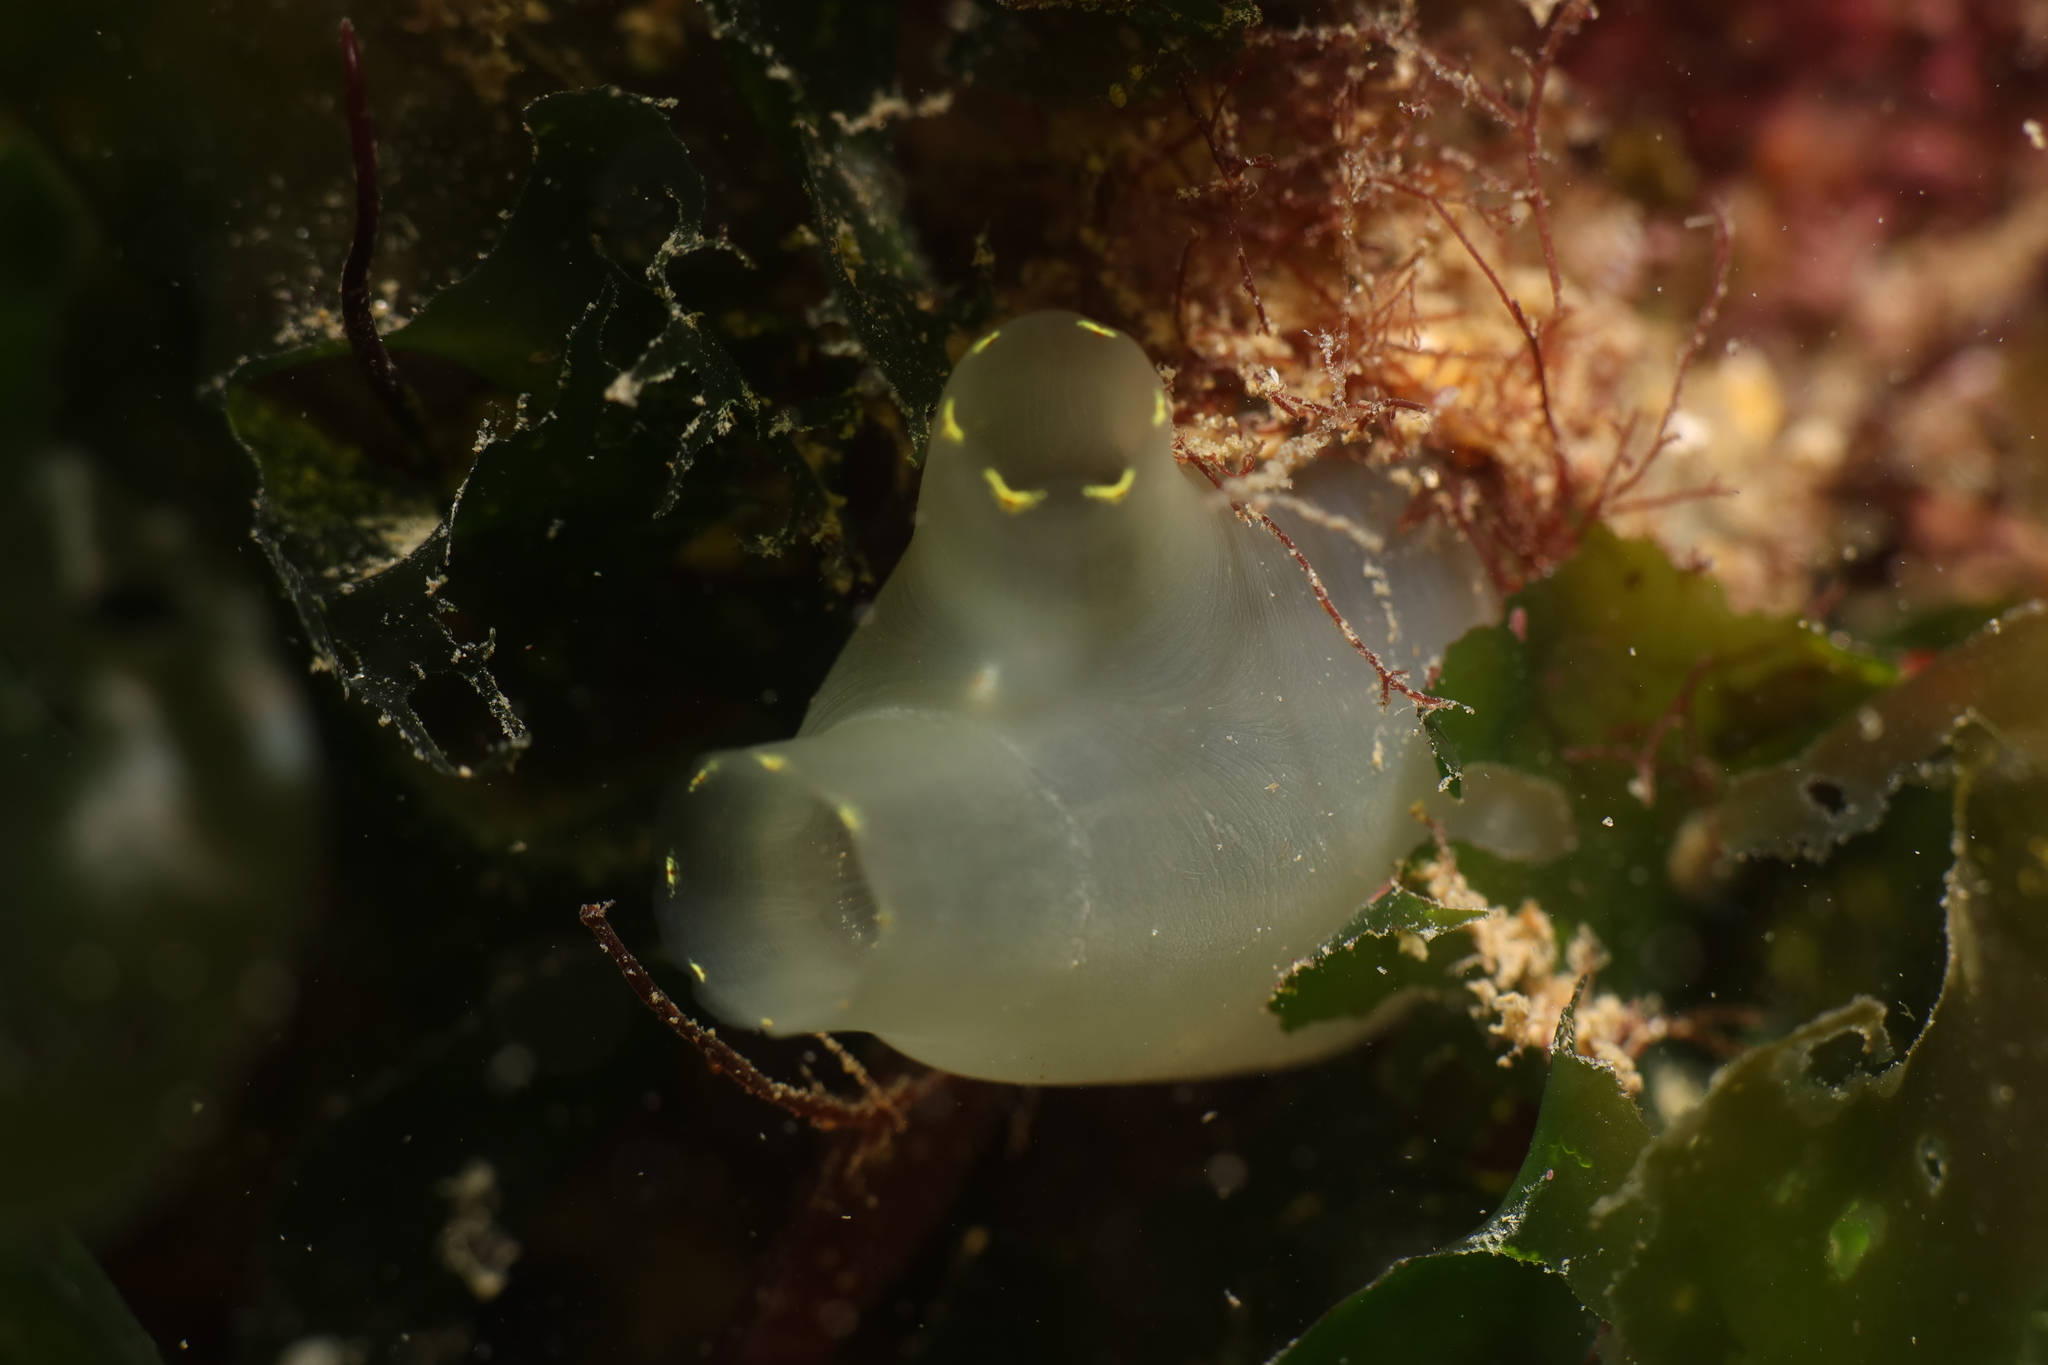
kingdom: Animalia
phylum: Chordata
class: Ascidiacea
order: Phlebobranchia
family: Cionidae
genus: Ciona
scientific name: Ciona intestinalis
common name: Vase tunicate
